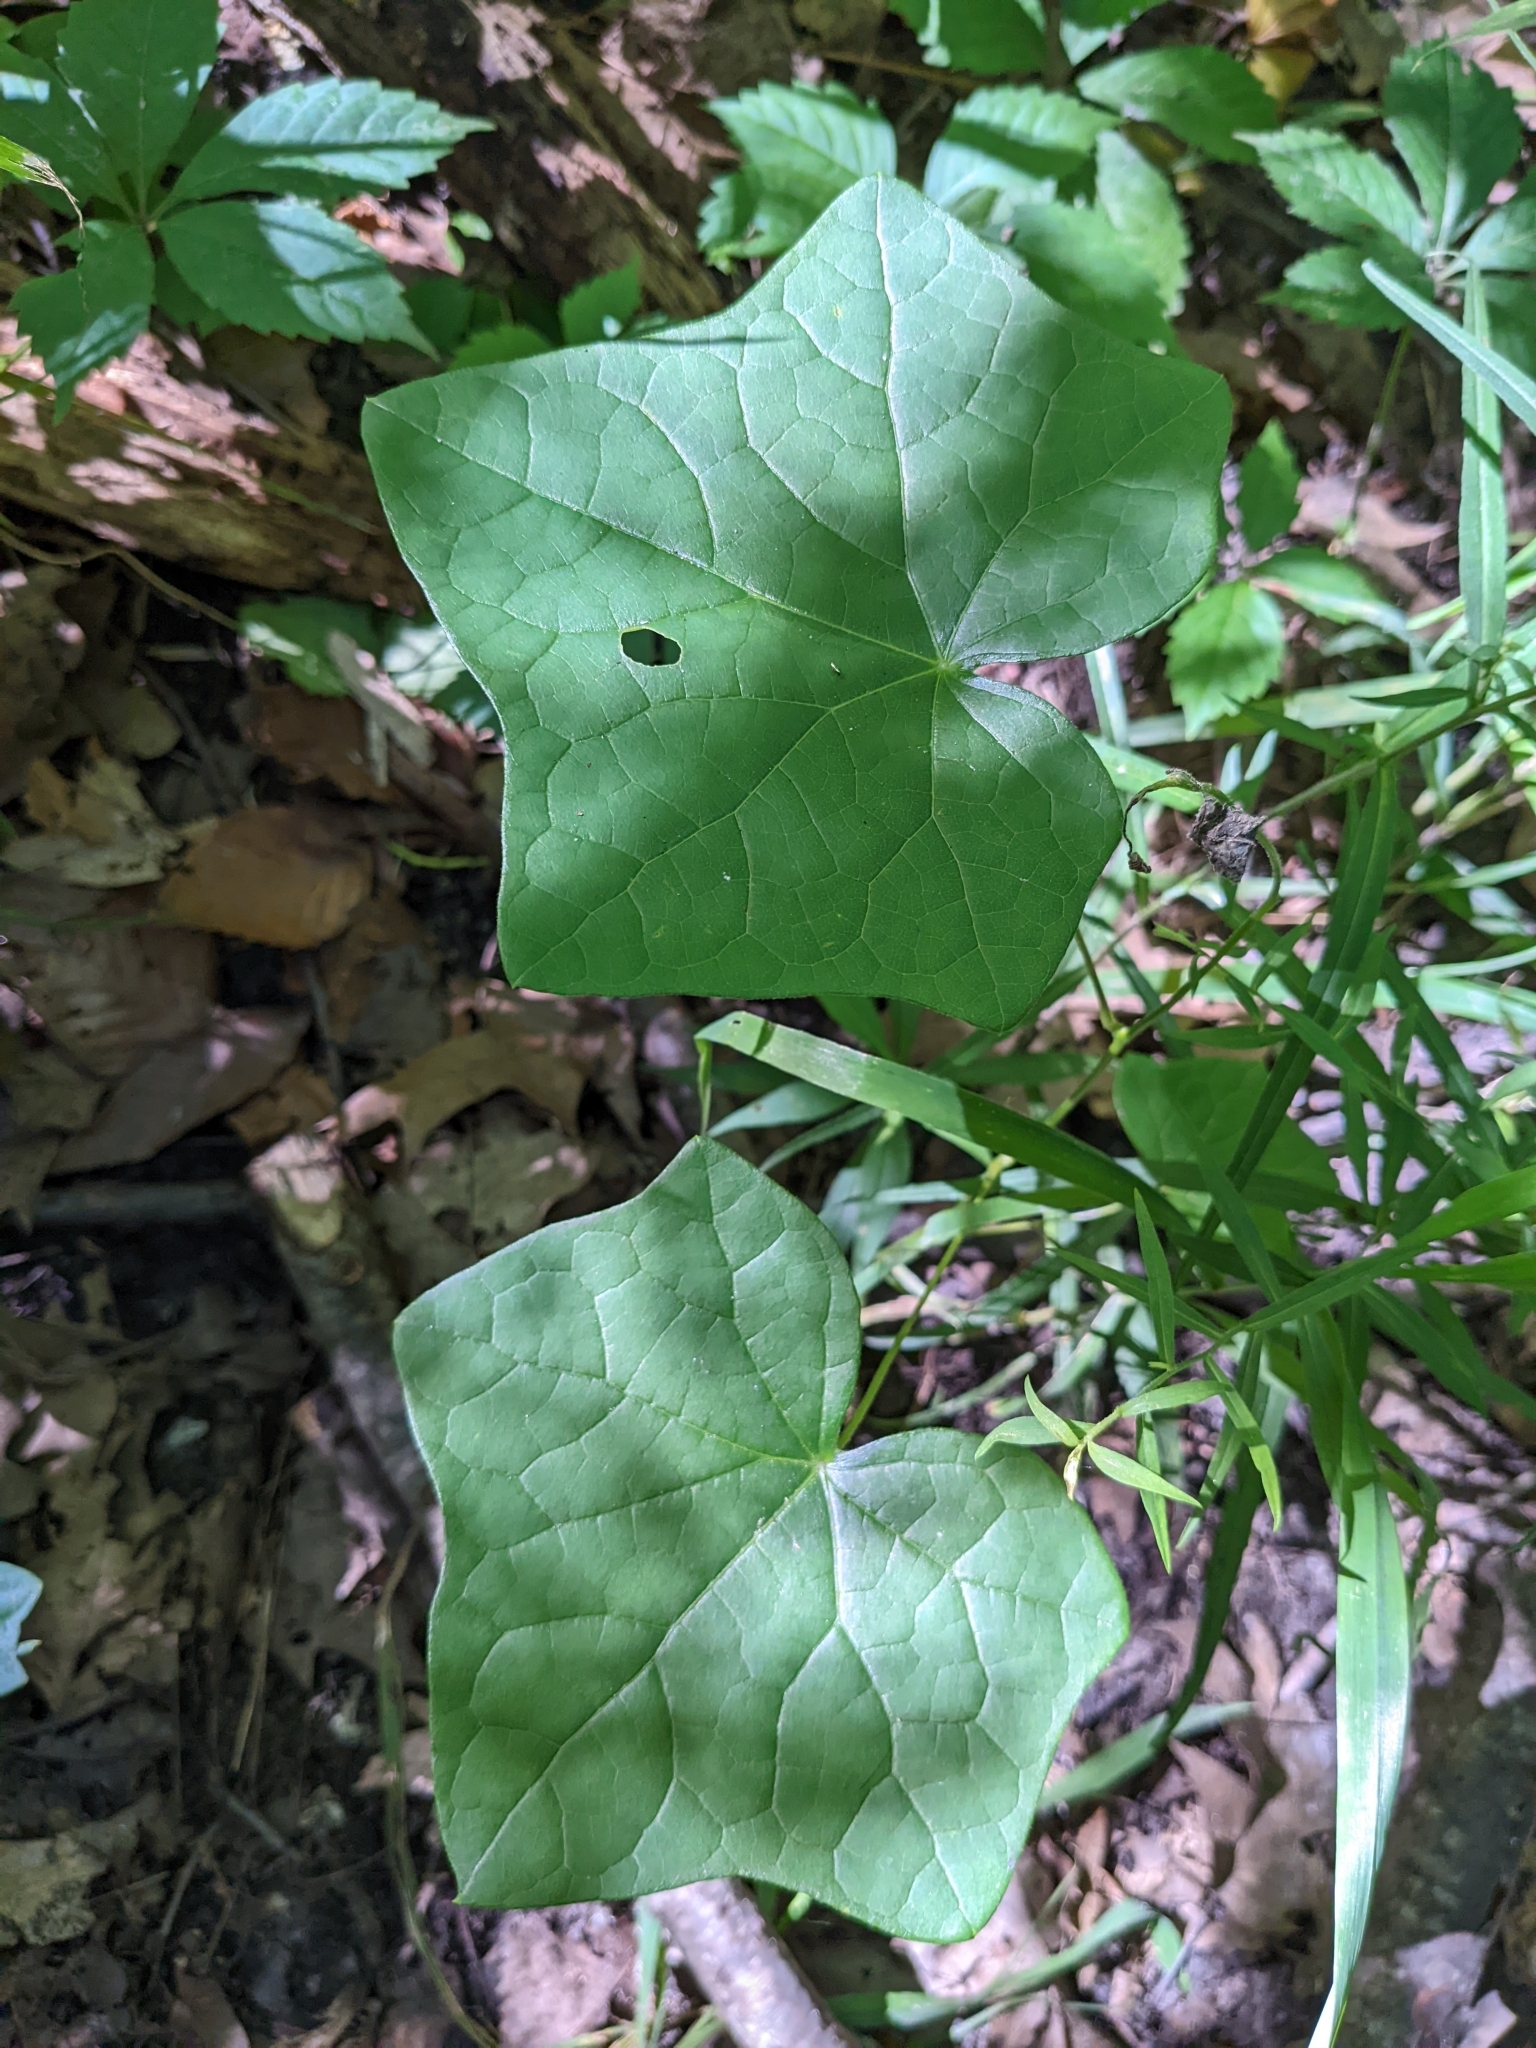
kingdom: Plantae
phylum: Tracheophyta
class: Magnoliopsida
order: Ranunculales
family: Menispermaceae
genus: Menispermum
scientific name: Menispermum canadense
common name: Moonseed
